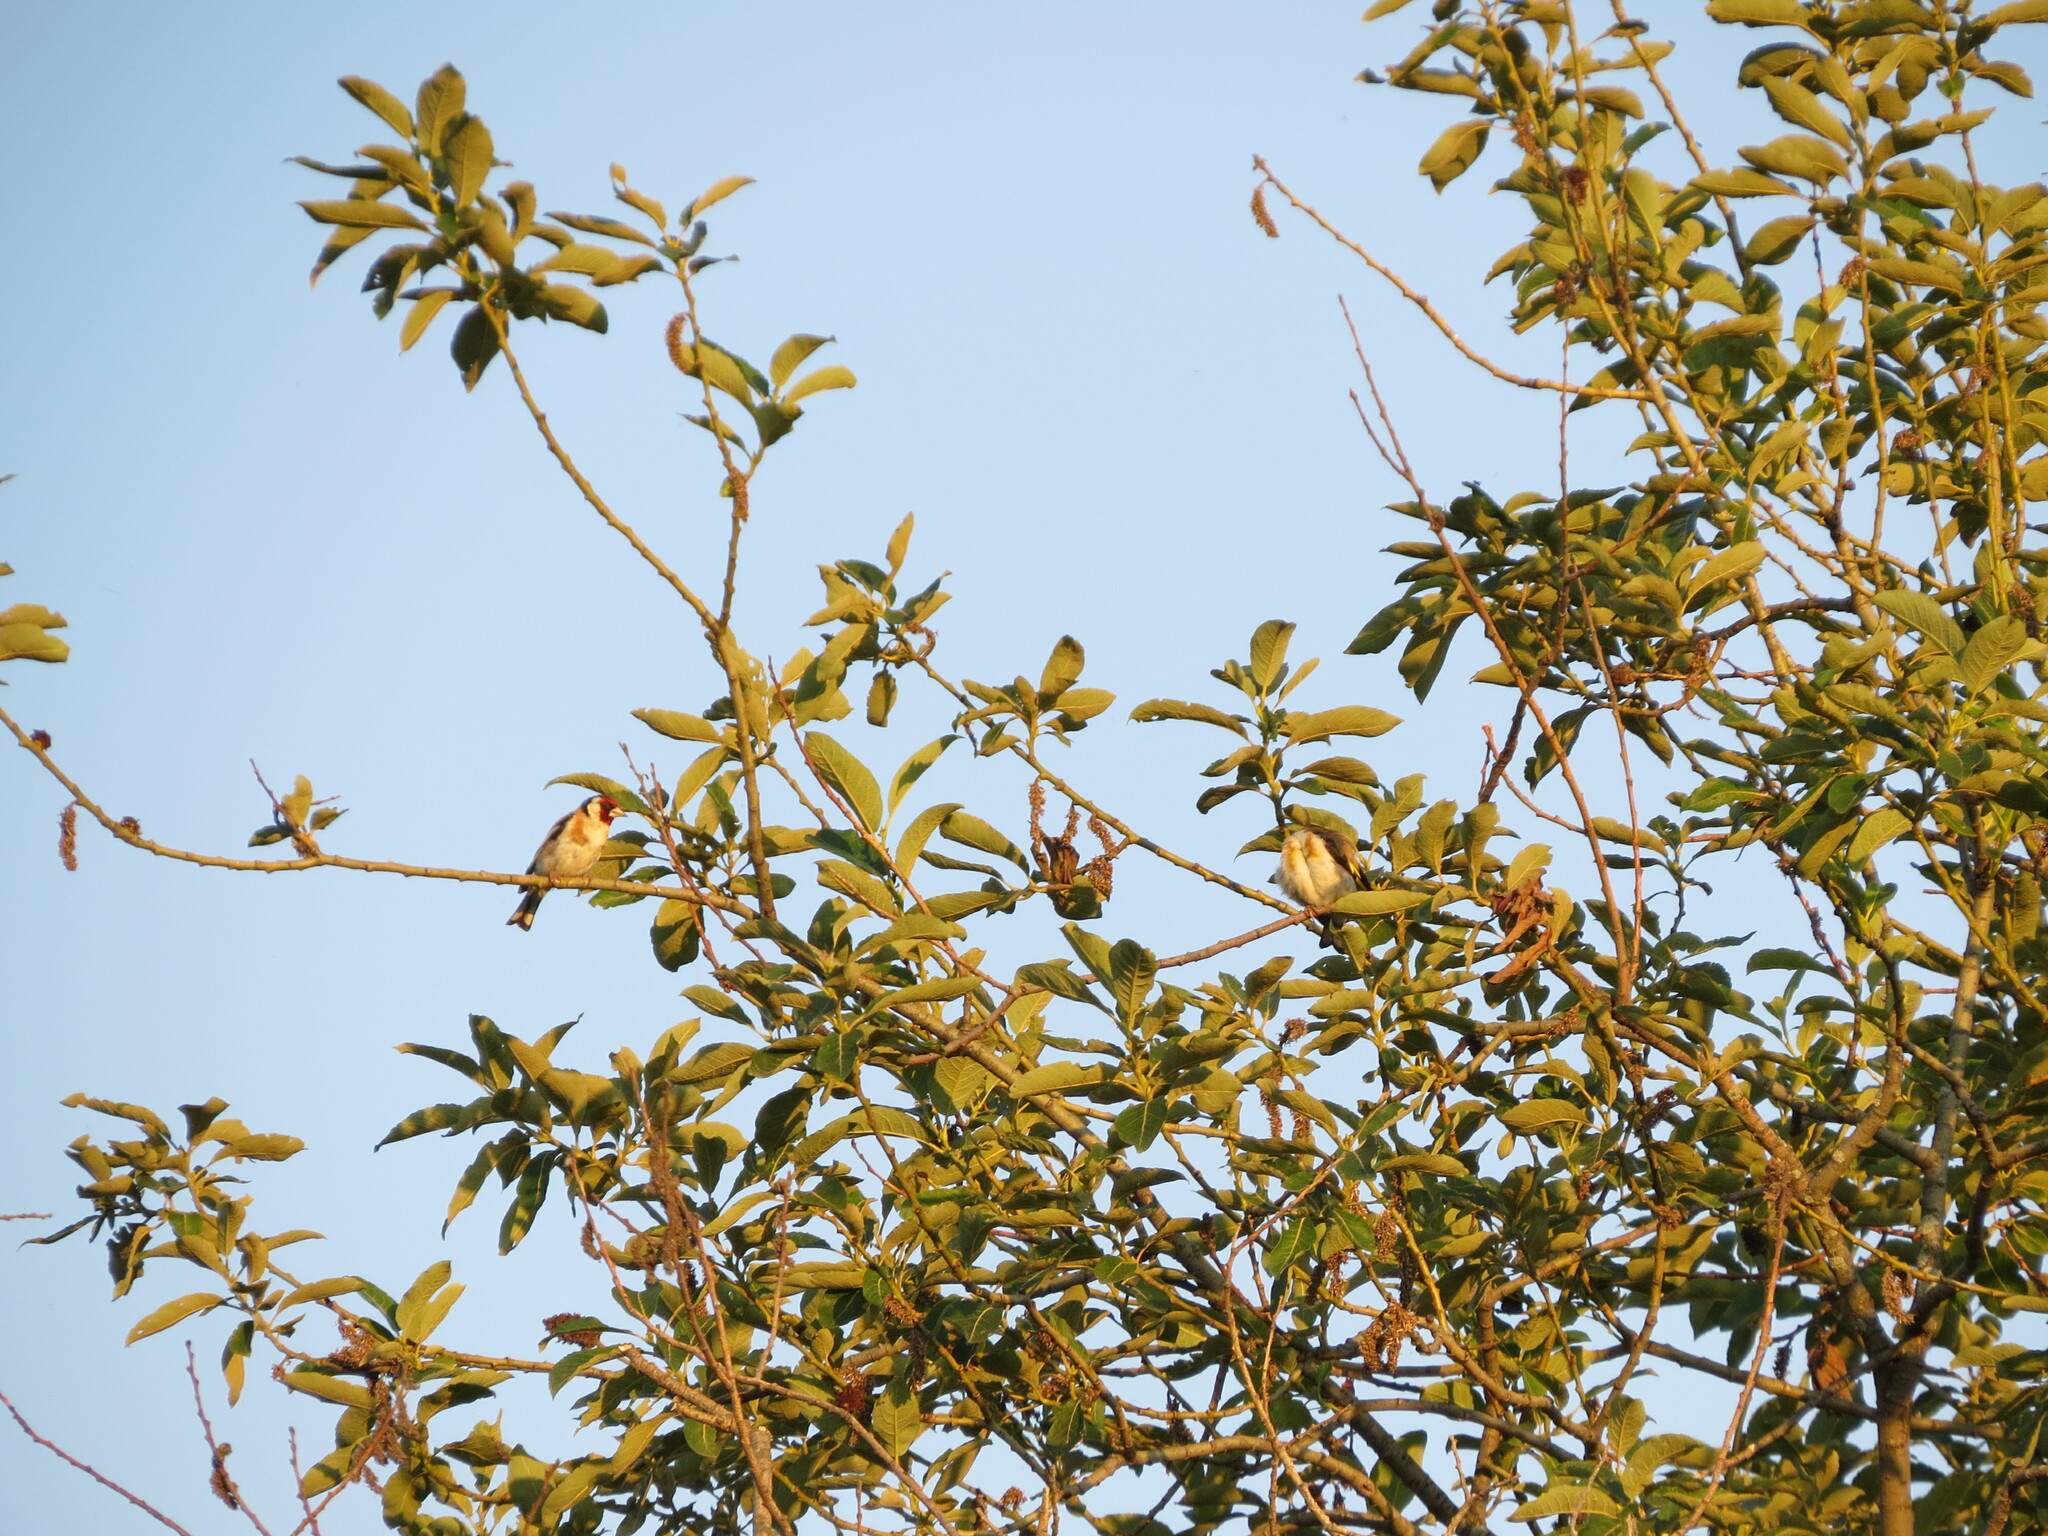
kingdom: Animalia
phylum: Chordata
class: Aves
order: Passeriformes
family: Fringillidae
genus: Carduelis
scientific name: Carduelis carduelis
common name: European goldfinch
